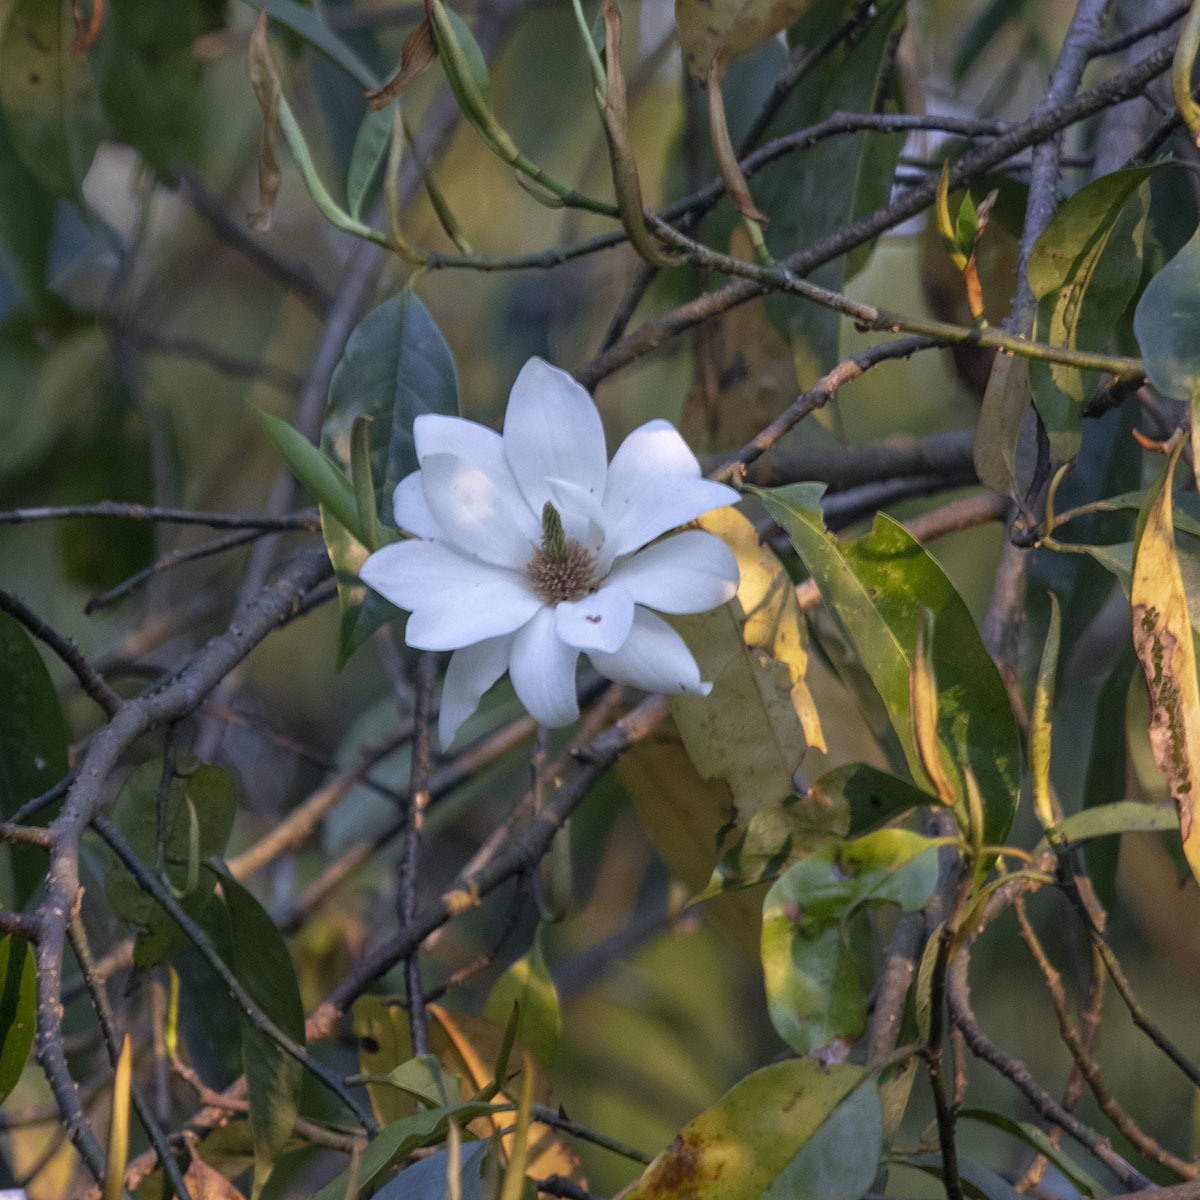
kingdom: Plantae
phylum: Tracheophyta
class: Magnoliopsida
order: Magnoliales
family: Magnoliaceae
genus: Magnolia
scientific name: Magnolia doltsopa
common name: Sweet michelia
